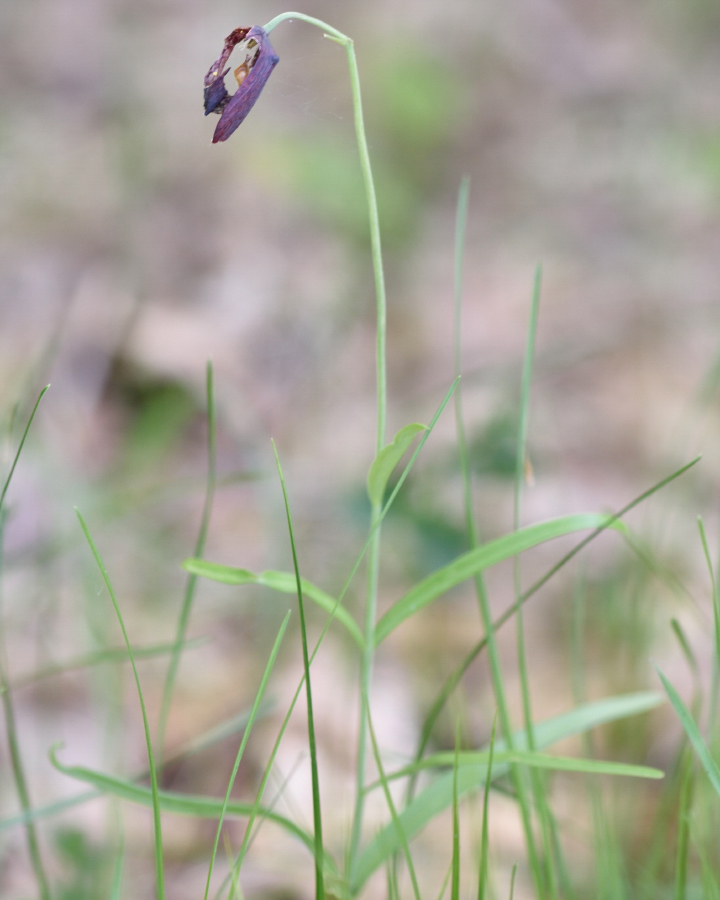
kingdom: Plantae
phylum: Tracheophyta
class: Liliopsida
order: Liliales
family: Liliaceae
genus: Fritillaria
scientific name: Fritillaria ruthenica
